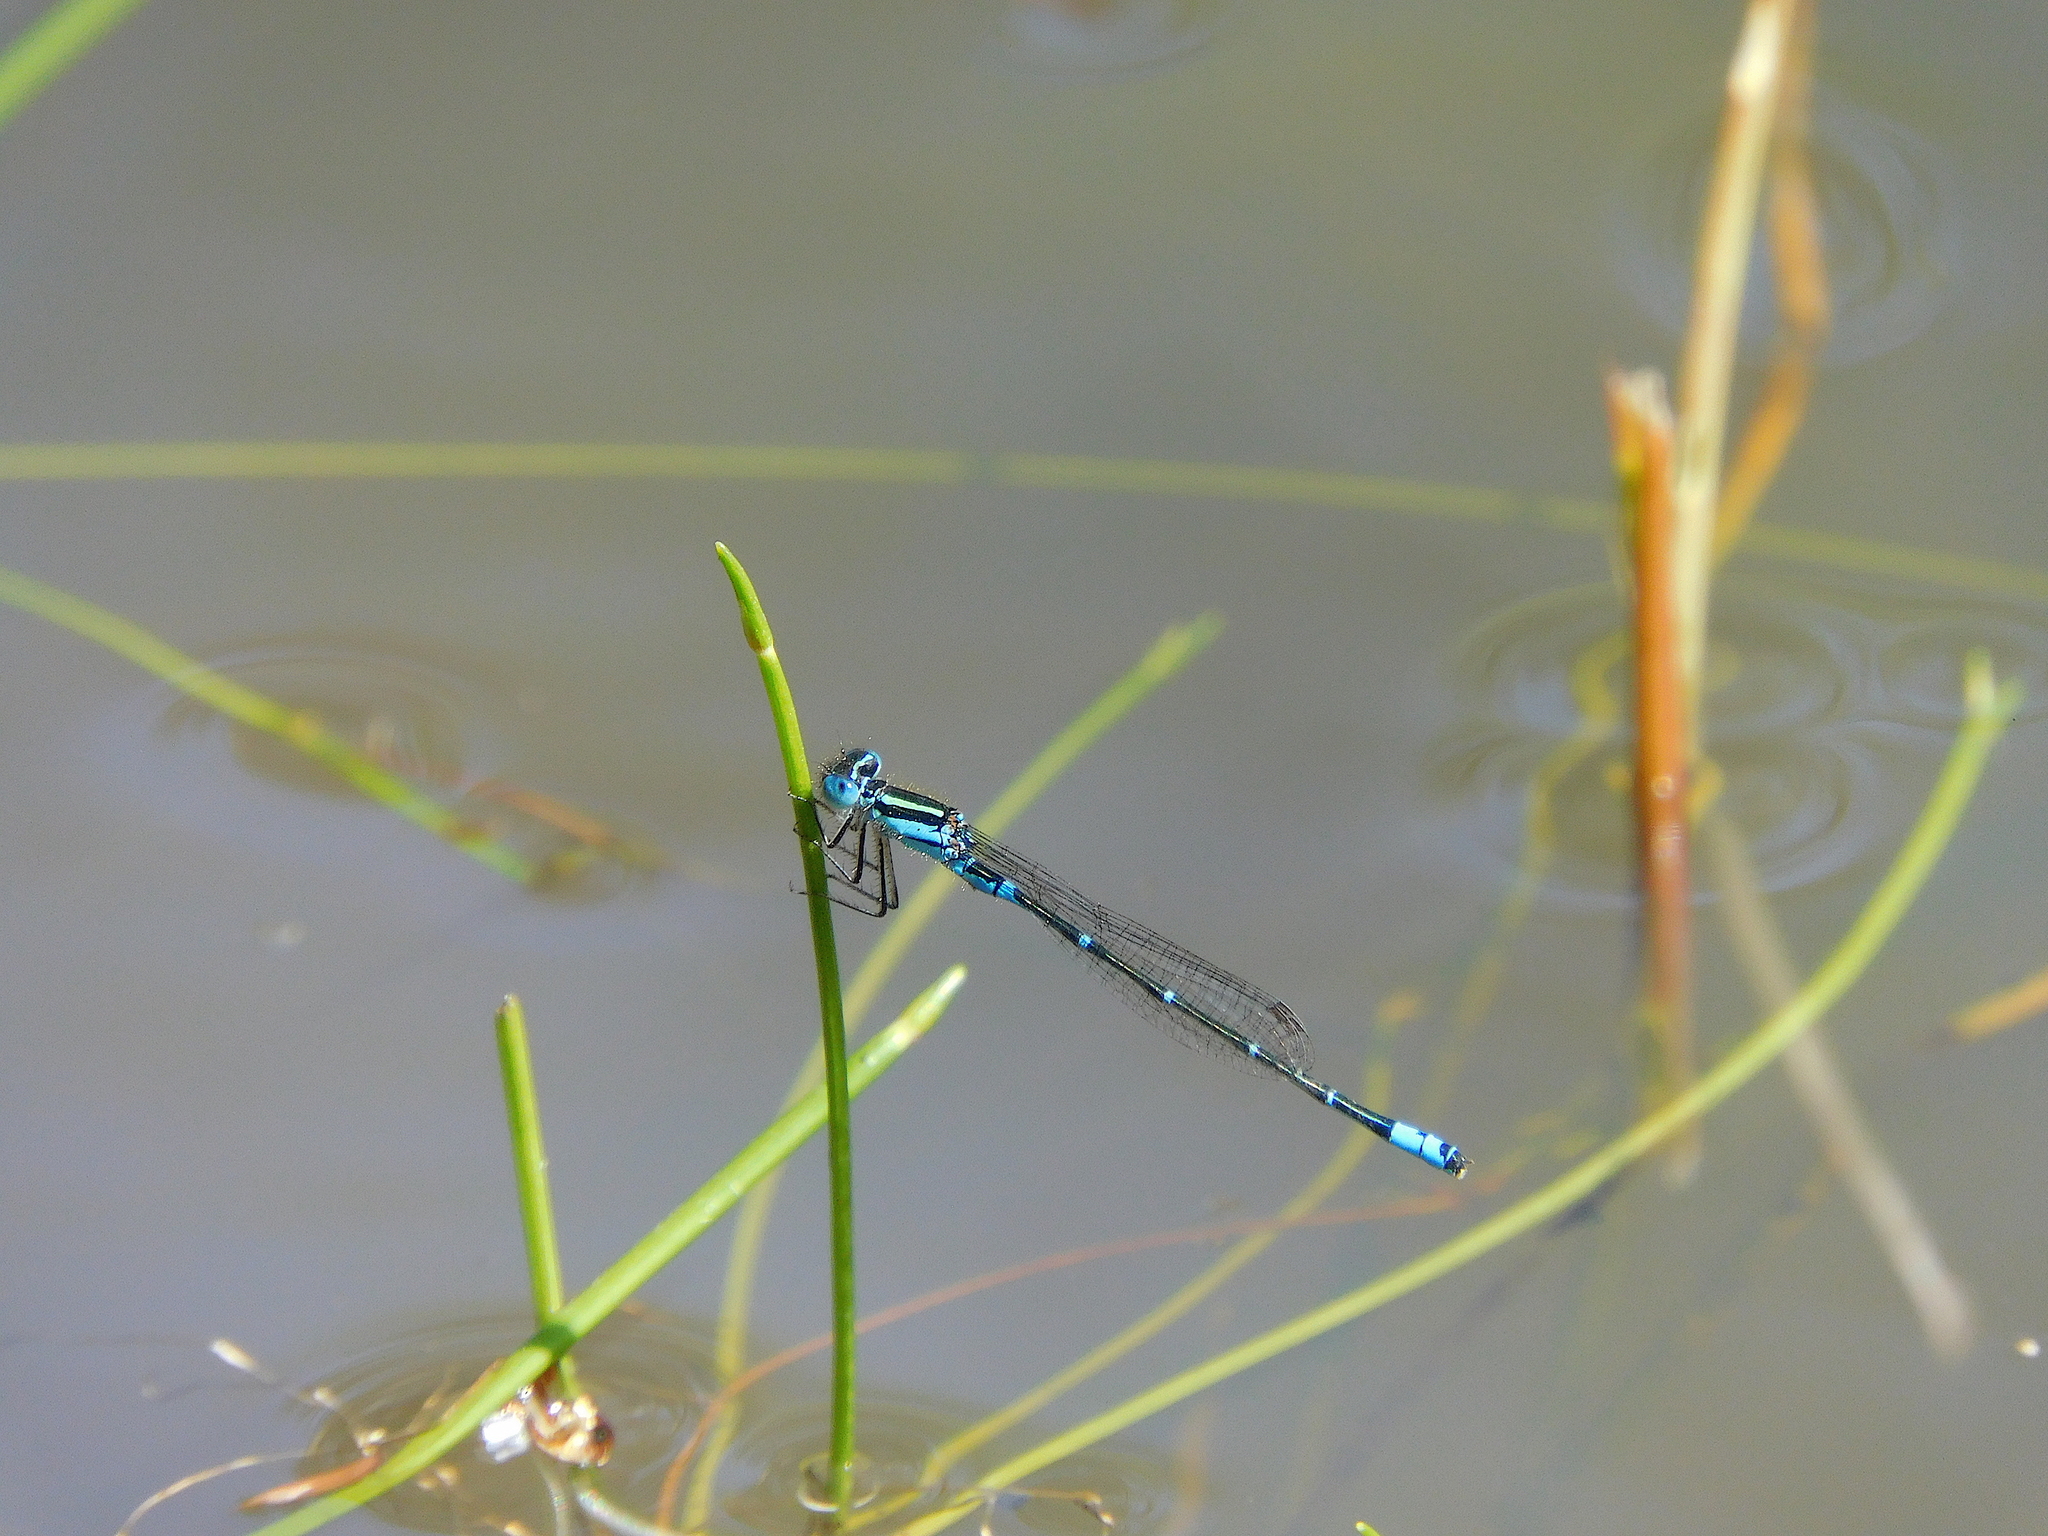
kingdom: Animalia
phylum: Arthropoda
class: Insecta
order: Odonata
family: Coenagrionidae
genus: Austroagrion
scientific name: Austroagrion watsoni
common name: Eastern billabongfly
